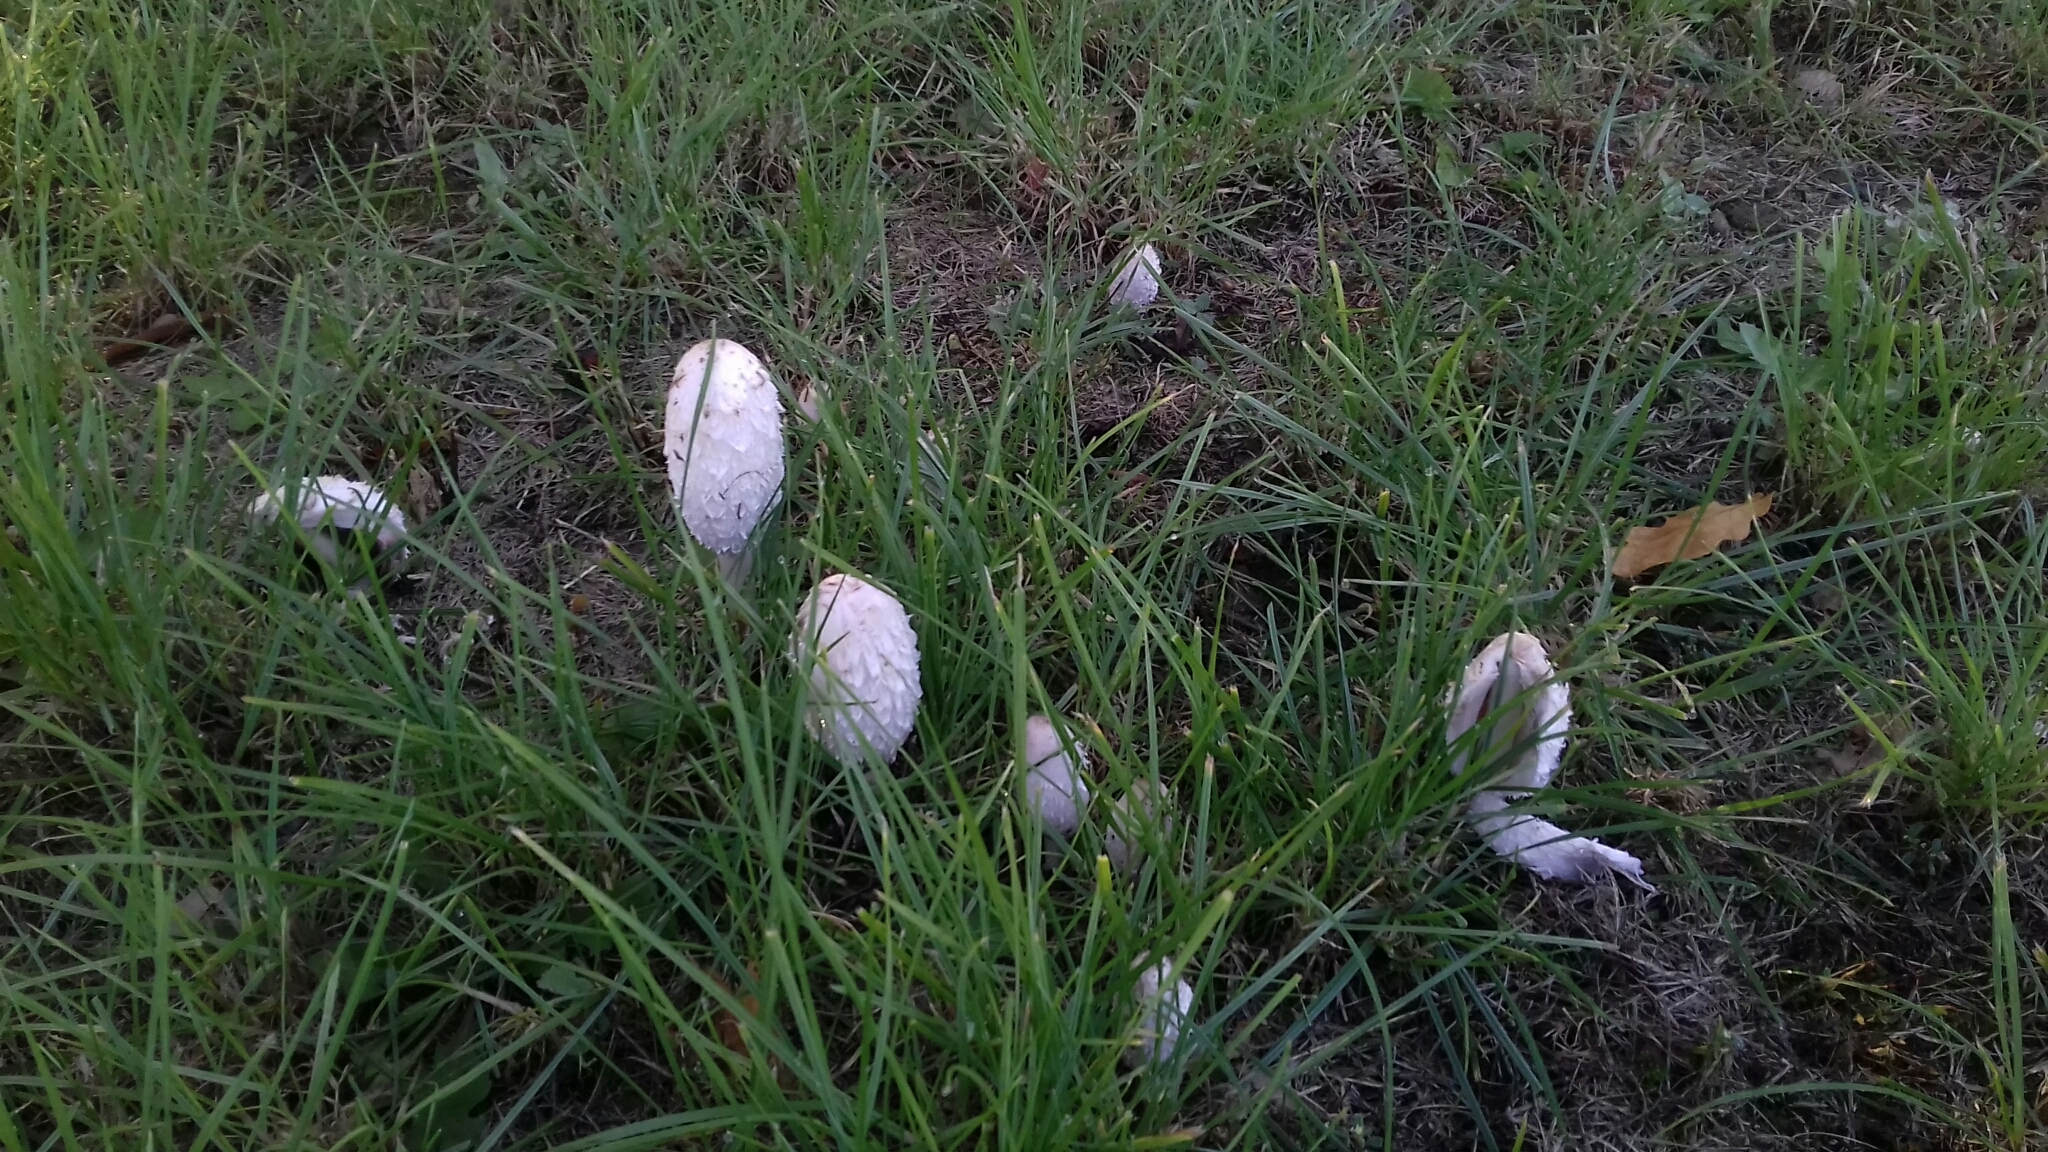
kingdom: Fungi
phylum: Basidiomycota
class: Agaricomycetes
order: Agaricales
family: Agaricaceae
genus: Coprinus
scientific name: Coprinus comatus
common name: Lawyer's wig
